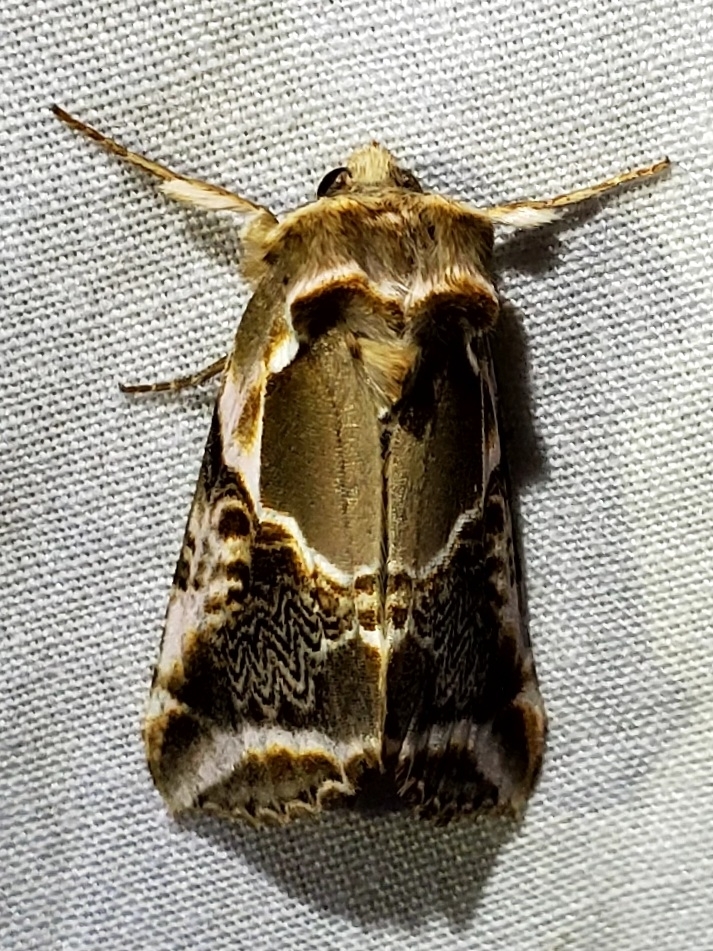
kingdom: Animalia
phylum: Arthropoda
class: Insecta
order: Lepidoptera
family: Drepanidae
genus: Habrosyne
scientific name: Habrosyne scripta
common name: Lettered habrosyne moth
